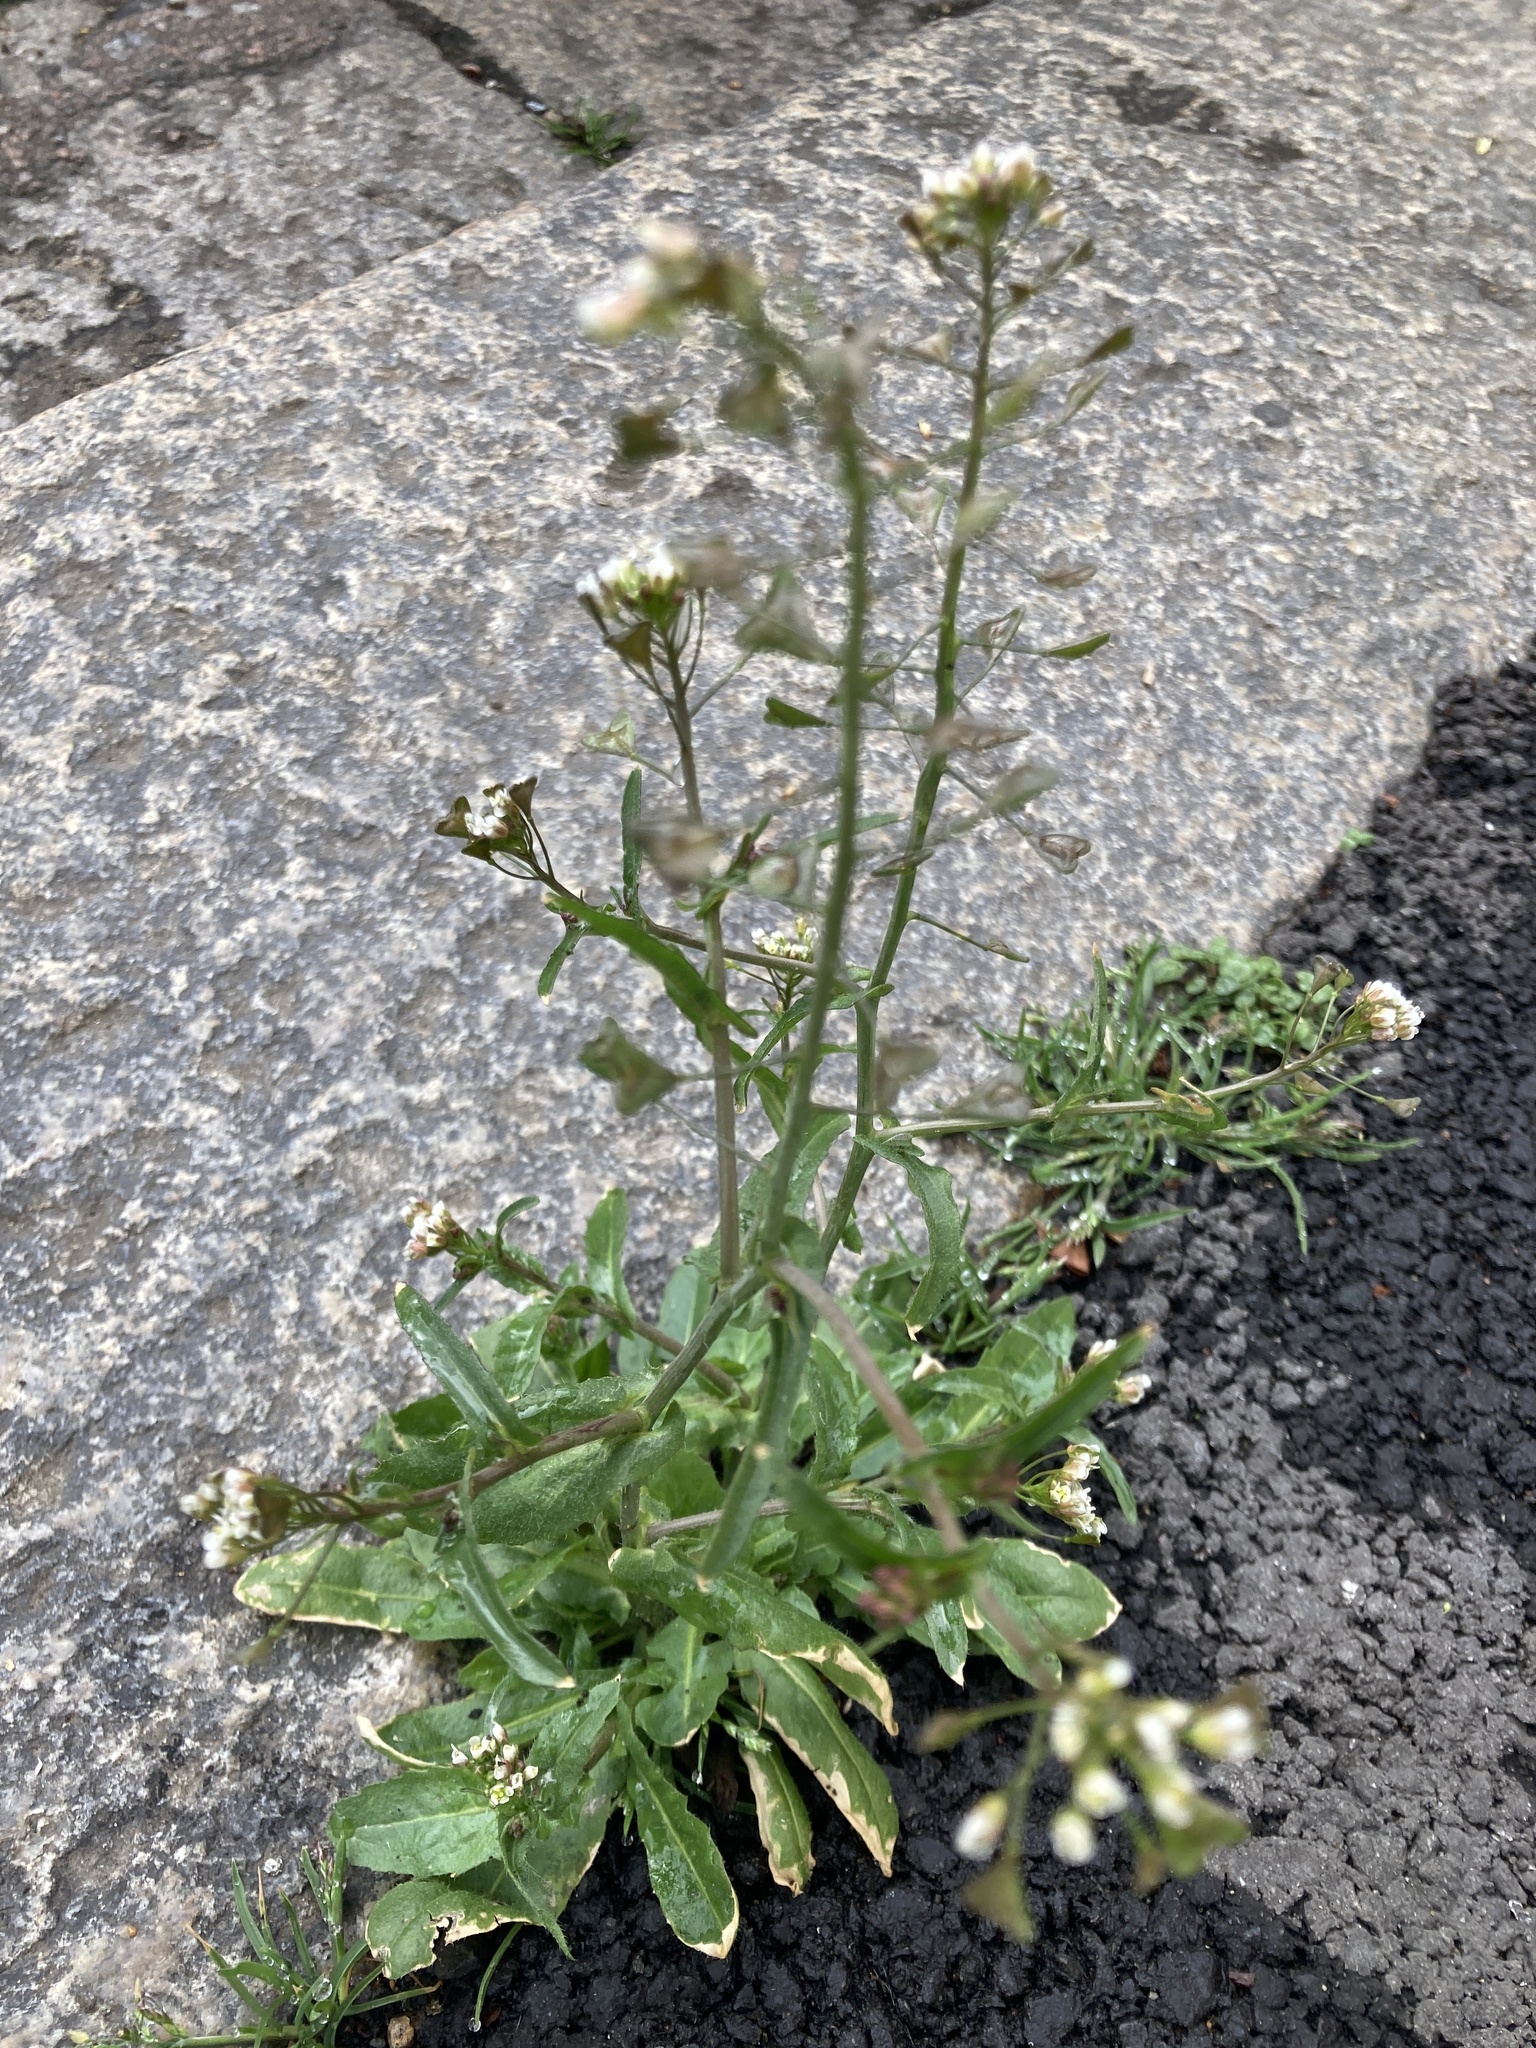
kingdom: Plantae
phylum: Tracheophyta
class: Magnoliopsida
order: Brassicales
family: Brassicaceae
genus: Capsella
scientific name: Capsella bursa-pastoris
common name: Shepherd's purse
